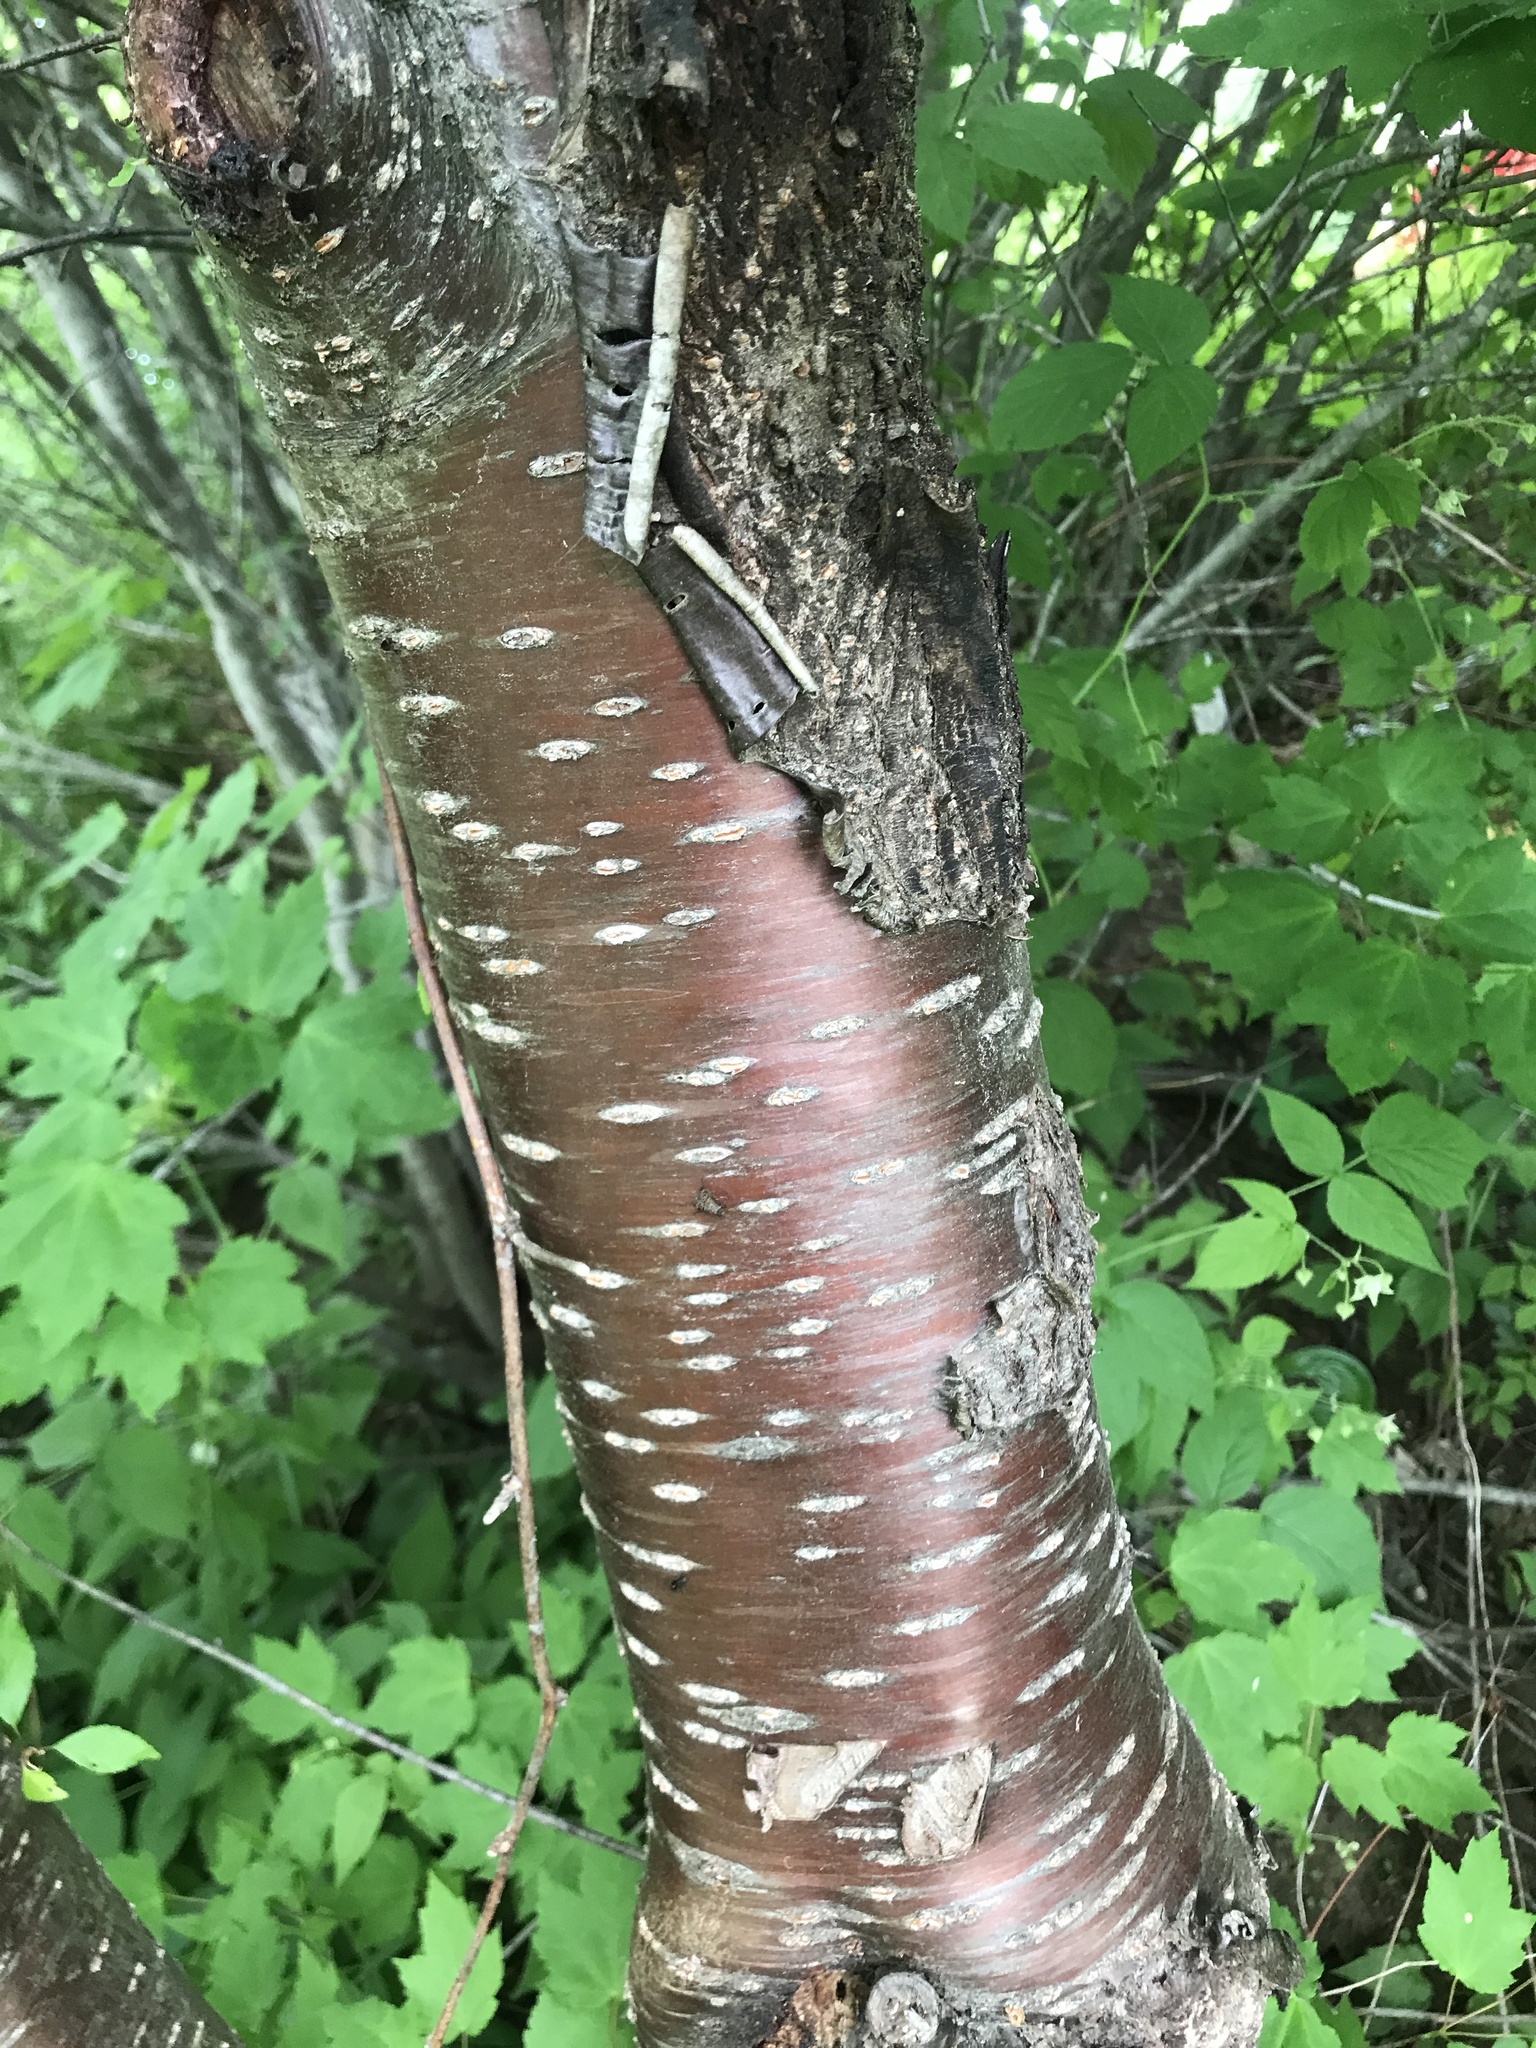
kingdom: Plantae
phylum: Tracheophyta
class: Magnoliopsida
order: Rosales
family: Rosaceae
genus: Prunus
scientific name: Prunus pensylvanica
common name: Pin cherry
